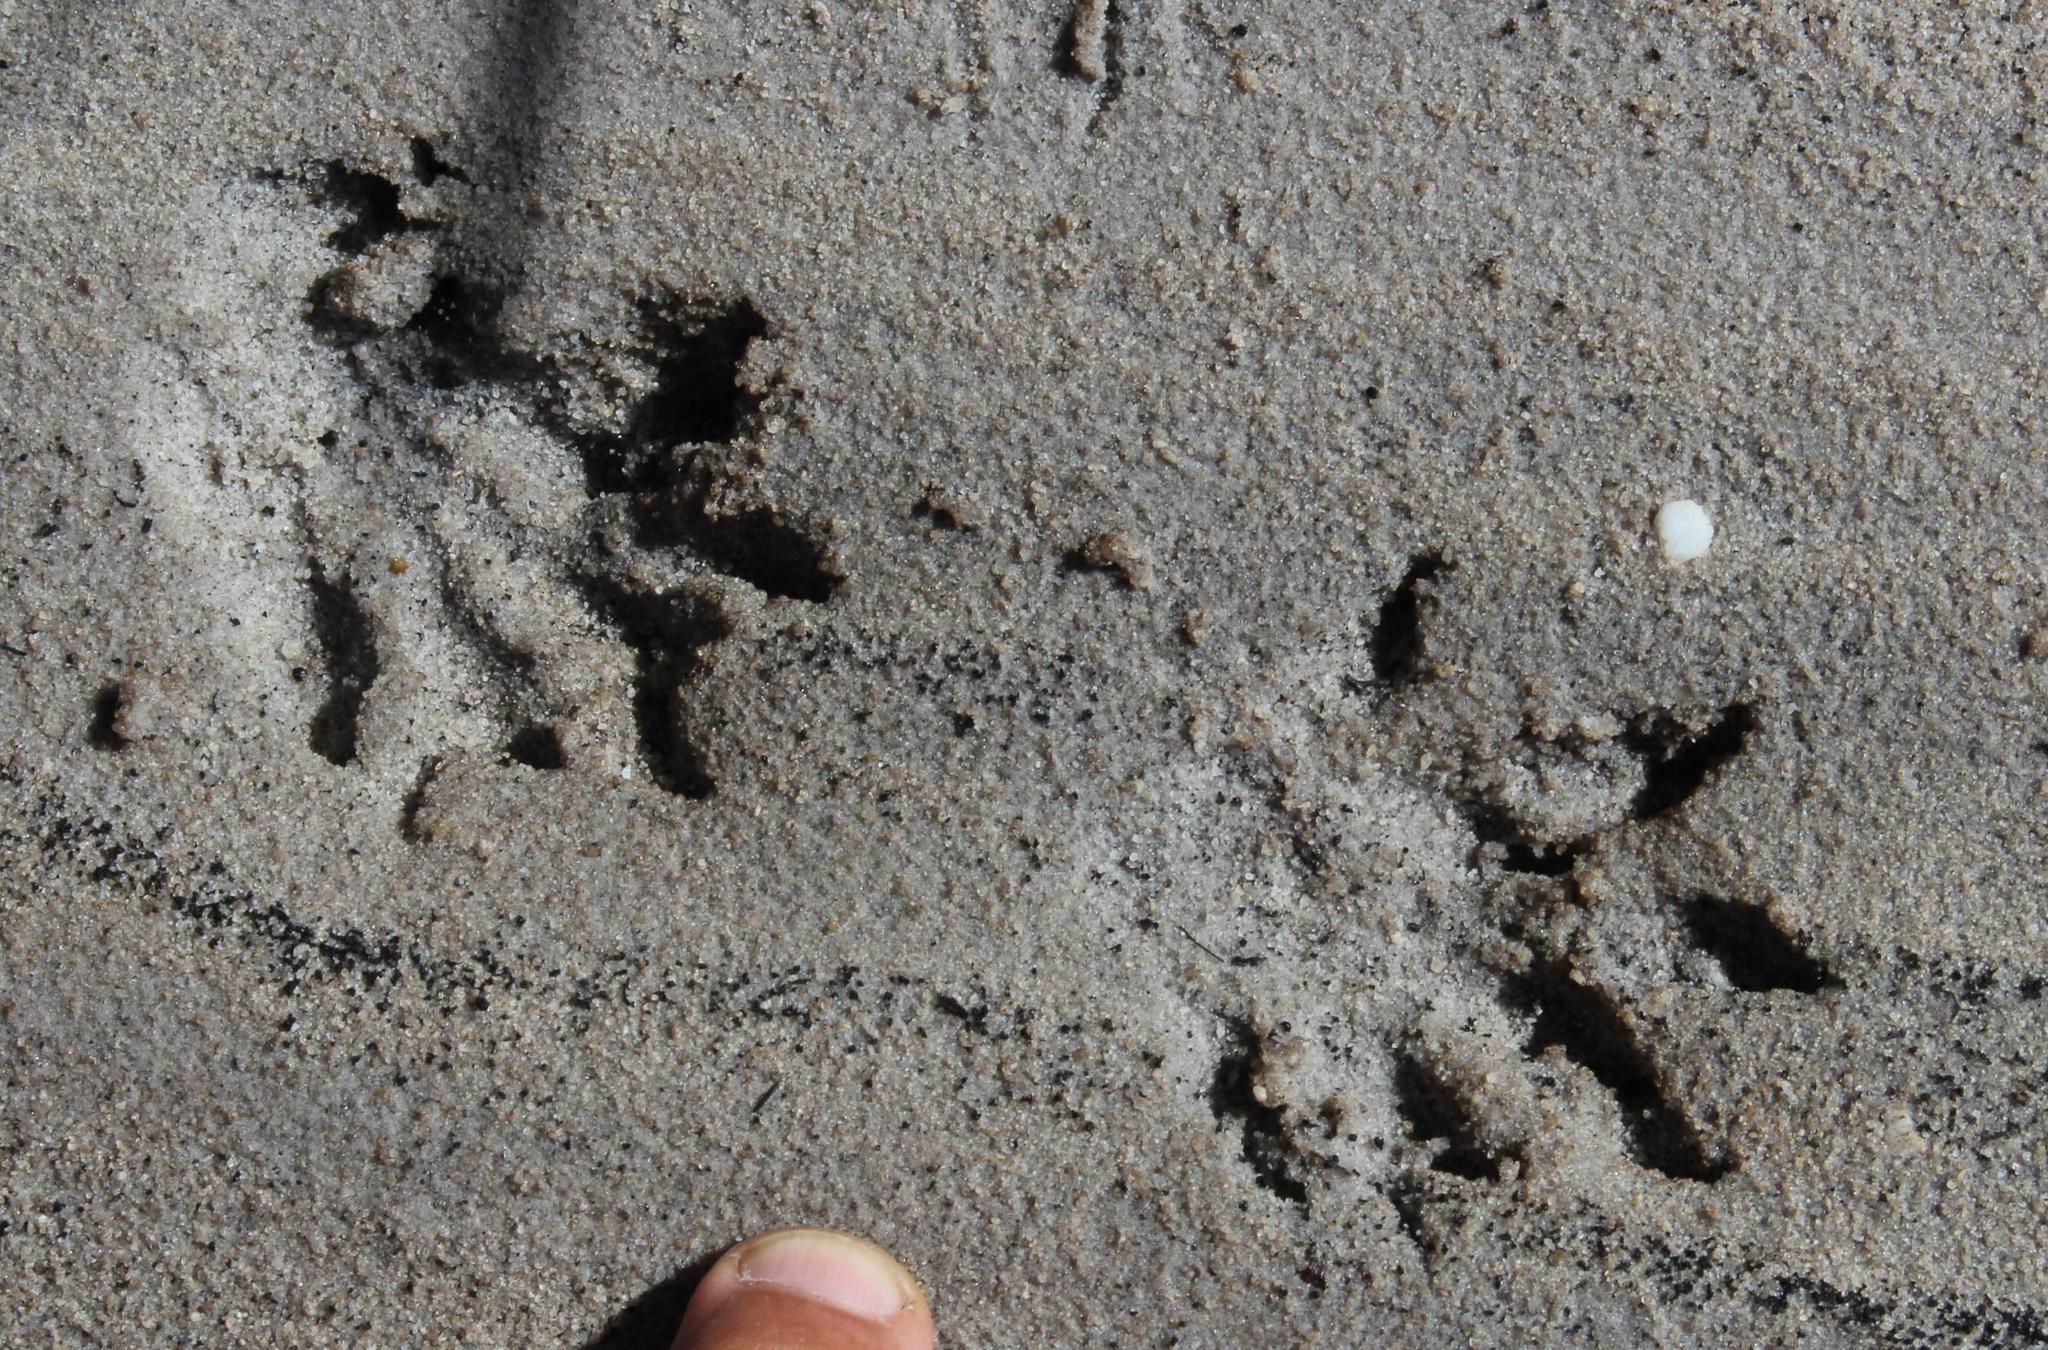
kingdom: Animalia
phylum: Chordata
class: Mammalia
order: Carnivora
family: Herpestidae
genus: Atilax
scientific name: Atilax paludinosus
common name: Marsh mongoose
